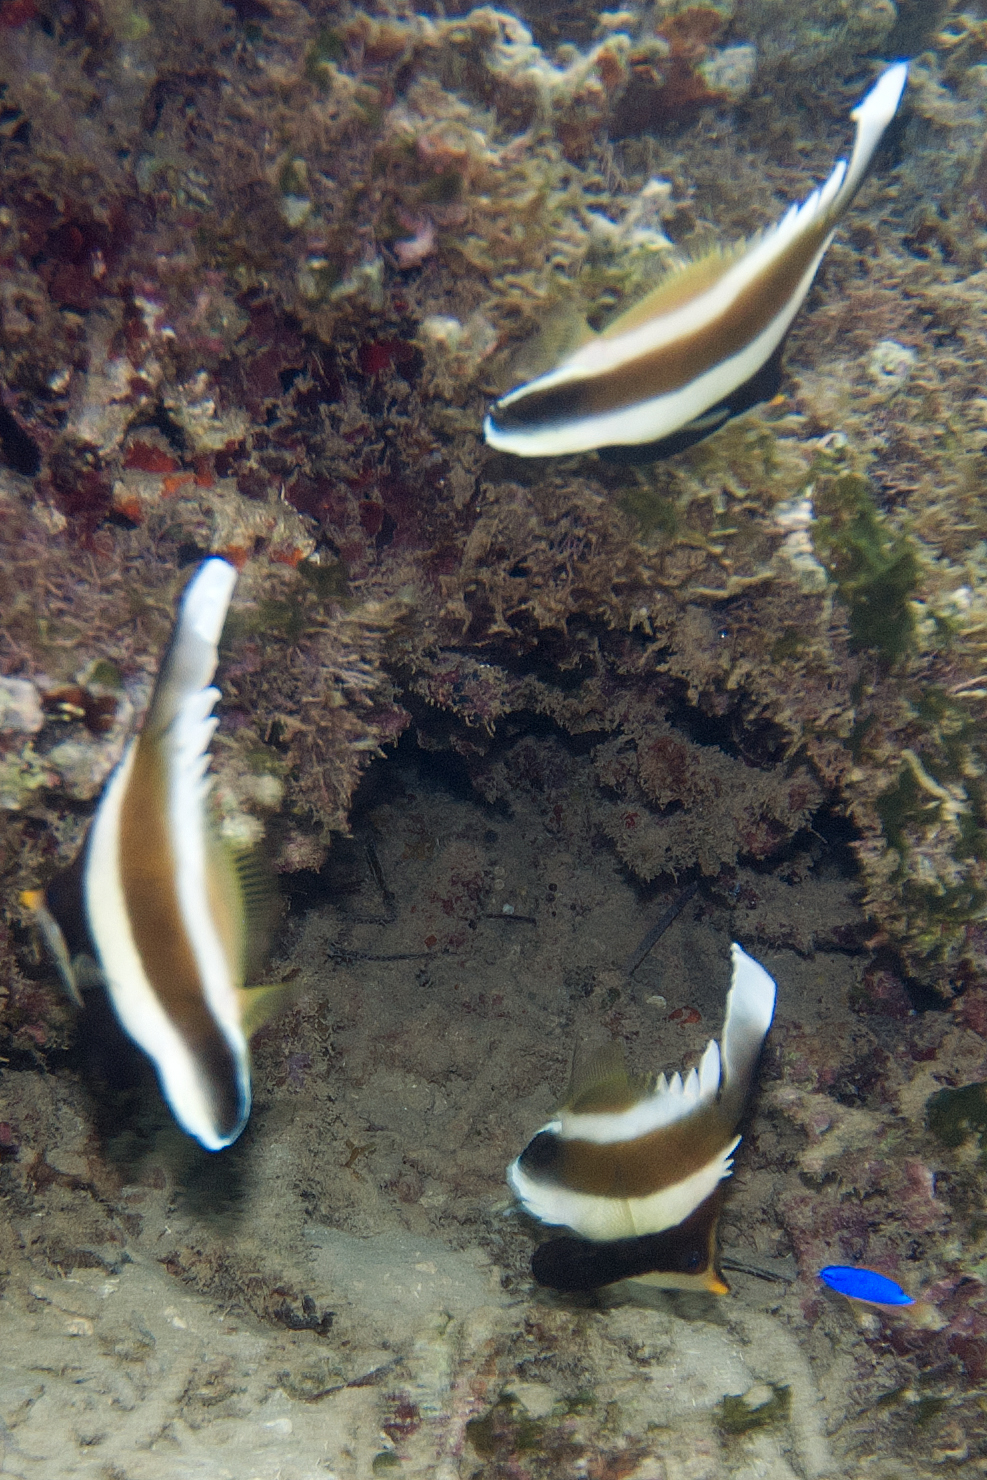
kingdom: Animalia
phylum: Chordata
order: Perciformes
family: Chaetodontidae
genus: Heniochus
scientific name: Heniochus chrysostomus
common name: Horned bannerfish
